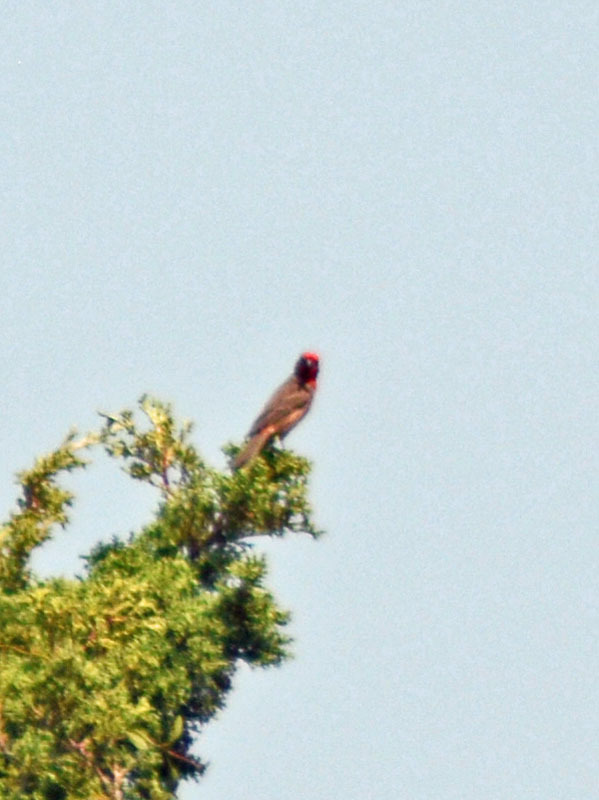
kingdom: Animalia
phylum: Chordata
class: Aves
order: Passeriformes
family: Fringillidae
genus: Haemorhous
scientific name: Haemorhous mexicanus
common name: House finch
